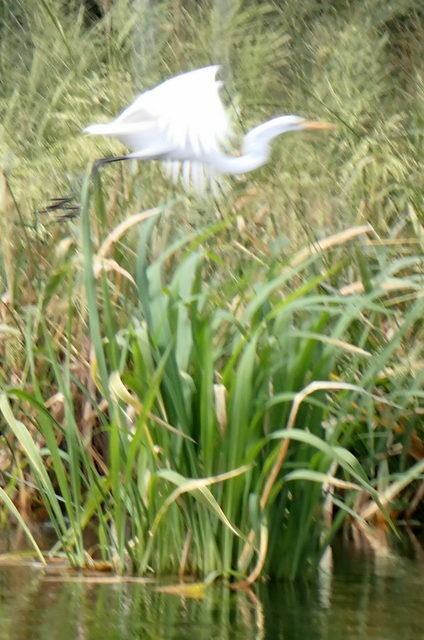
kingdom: Animalia
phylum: Chordata
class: Aves
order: Pelecaniformes
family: Ardeidae
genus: Ardea
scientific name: Ardea alba
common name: Great egret
